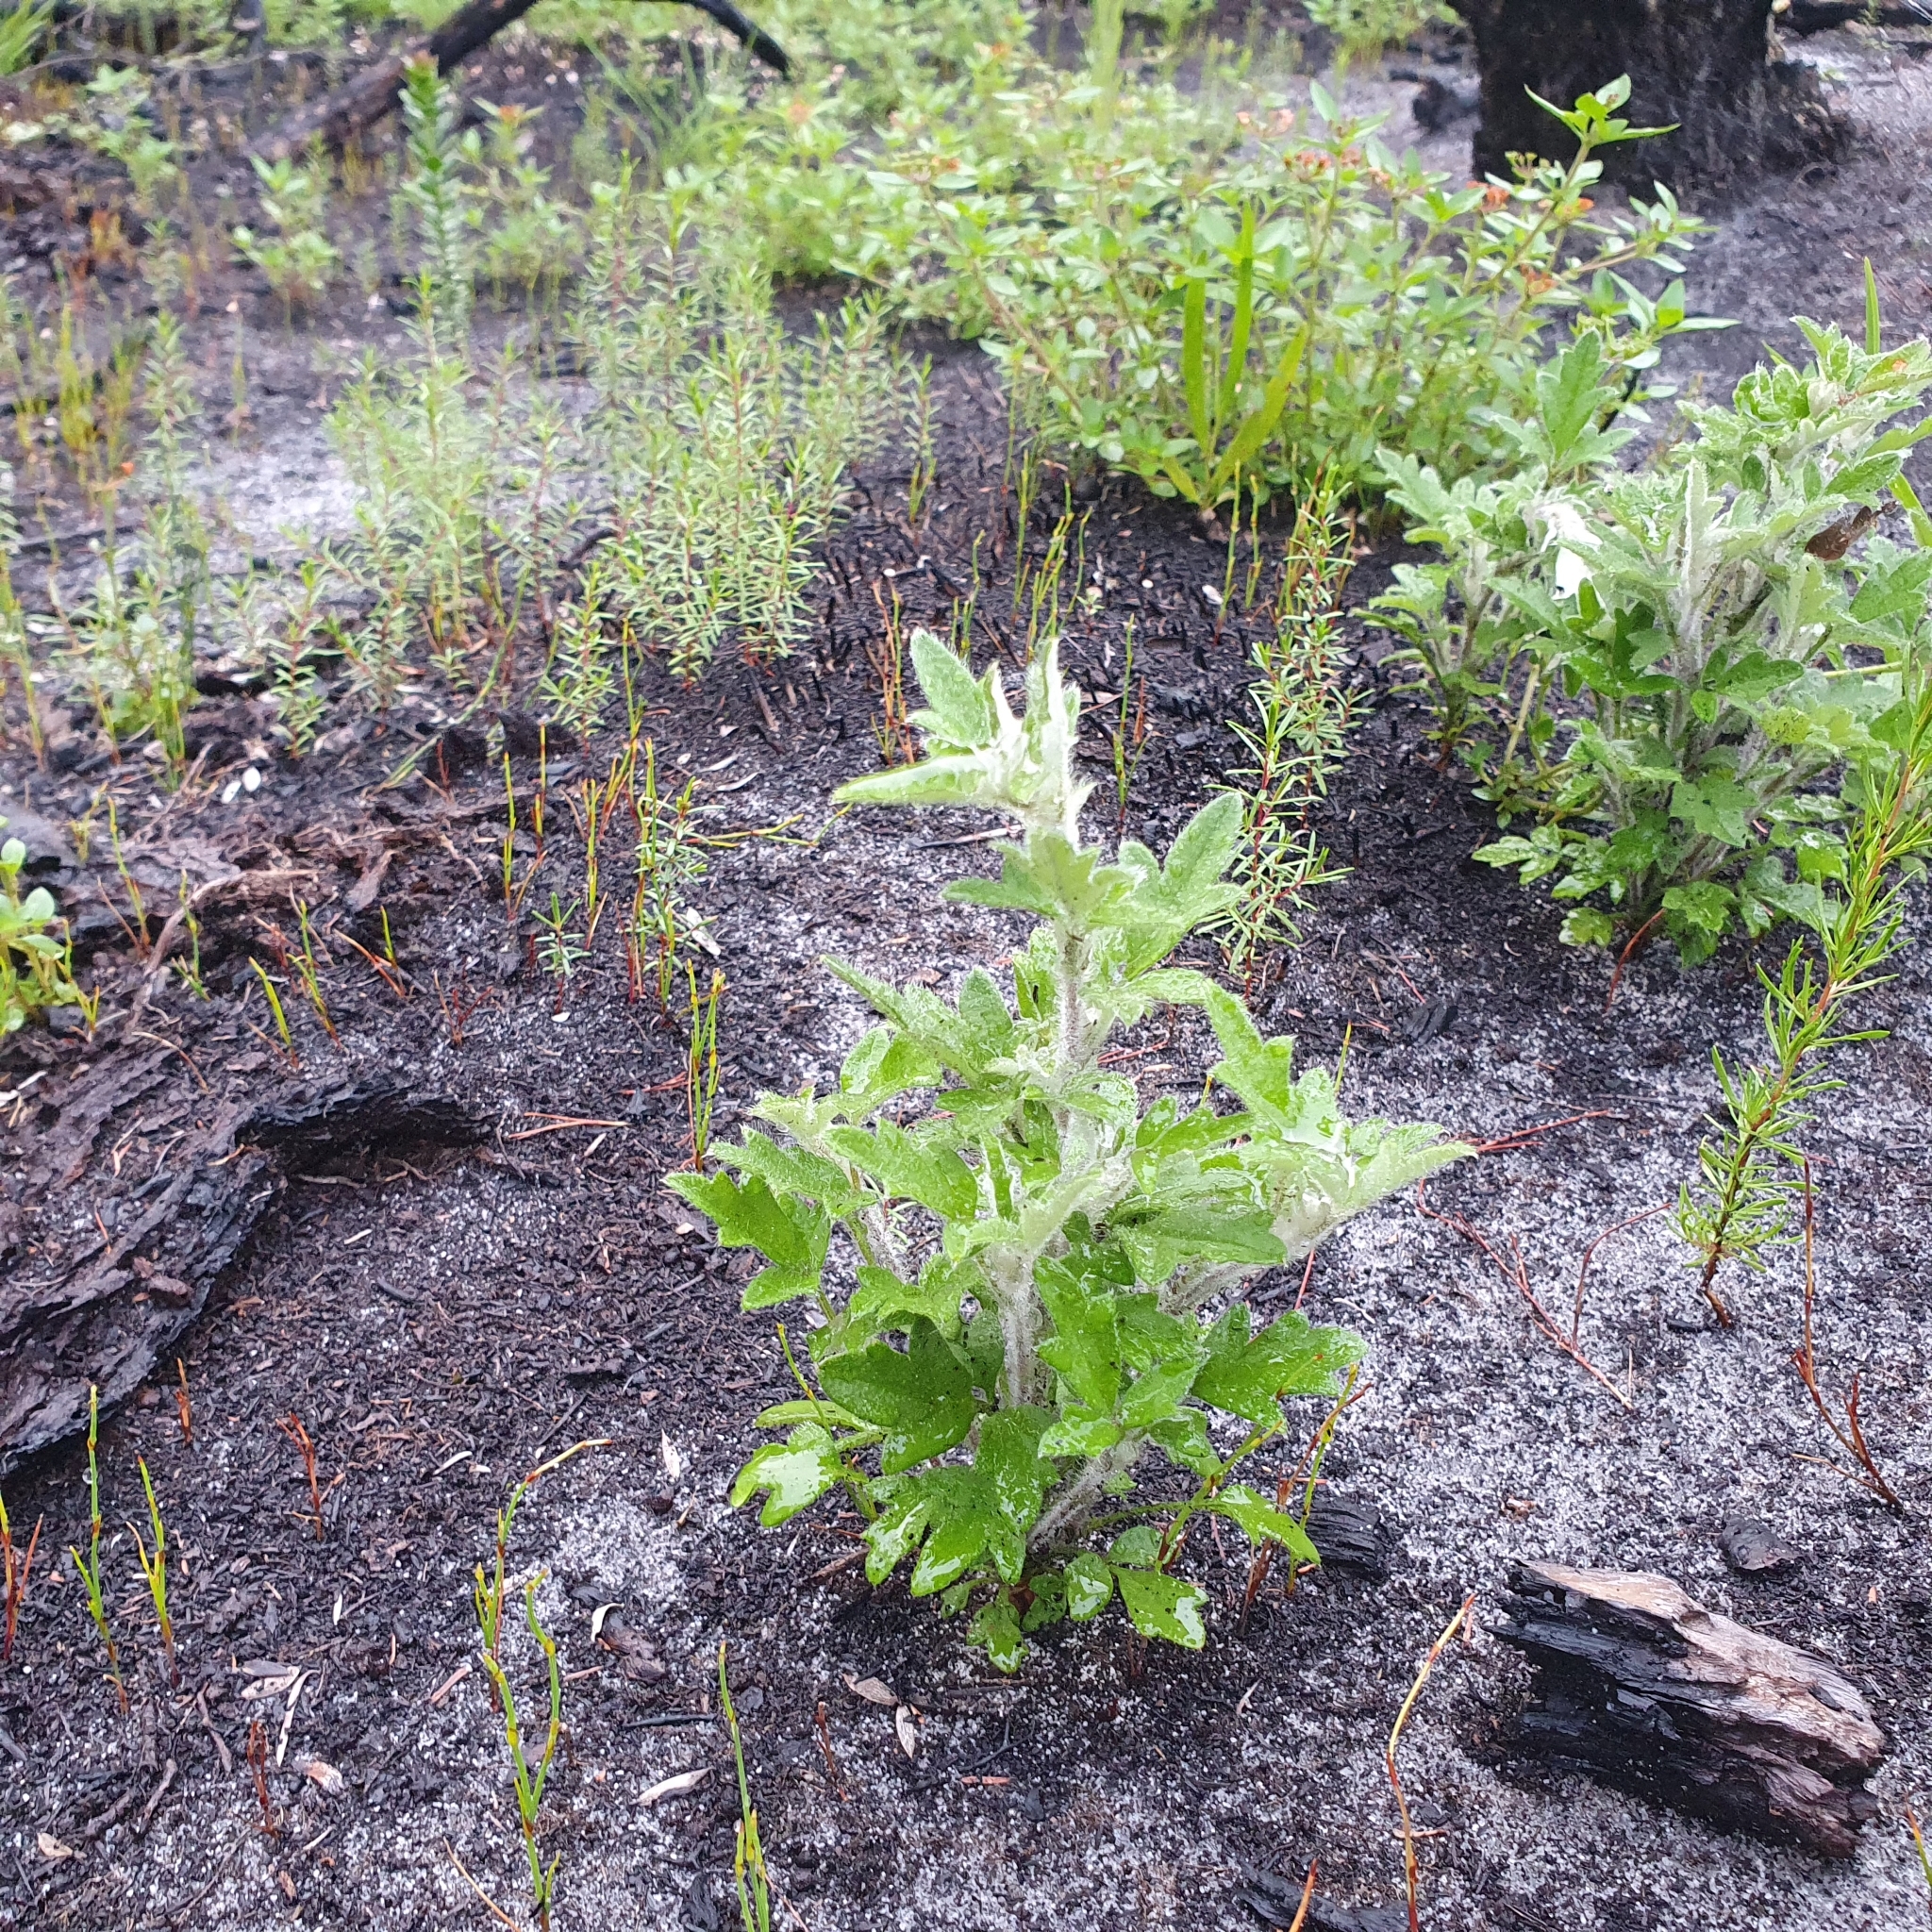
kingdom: Plantae
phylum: Tracheophyta
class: Magnoliopsida
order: Apiales
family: Apiaceae
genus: Xanthosia
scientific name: Xanthosia pilosa
